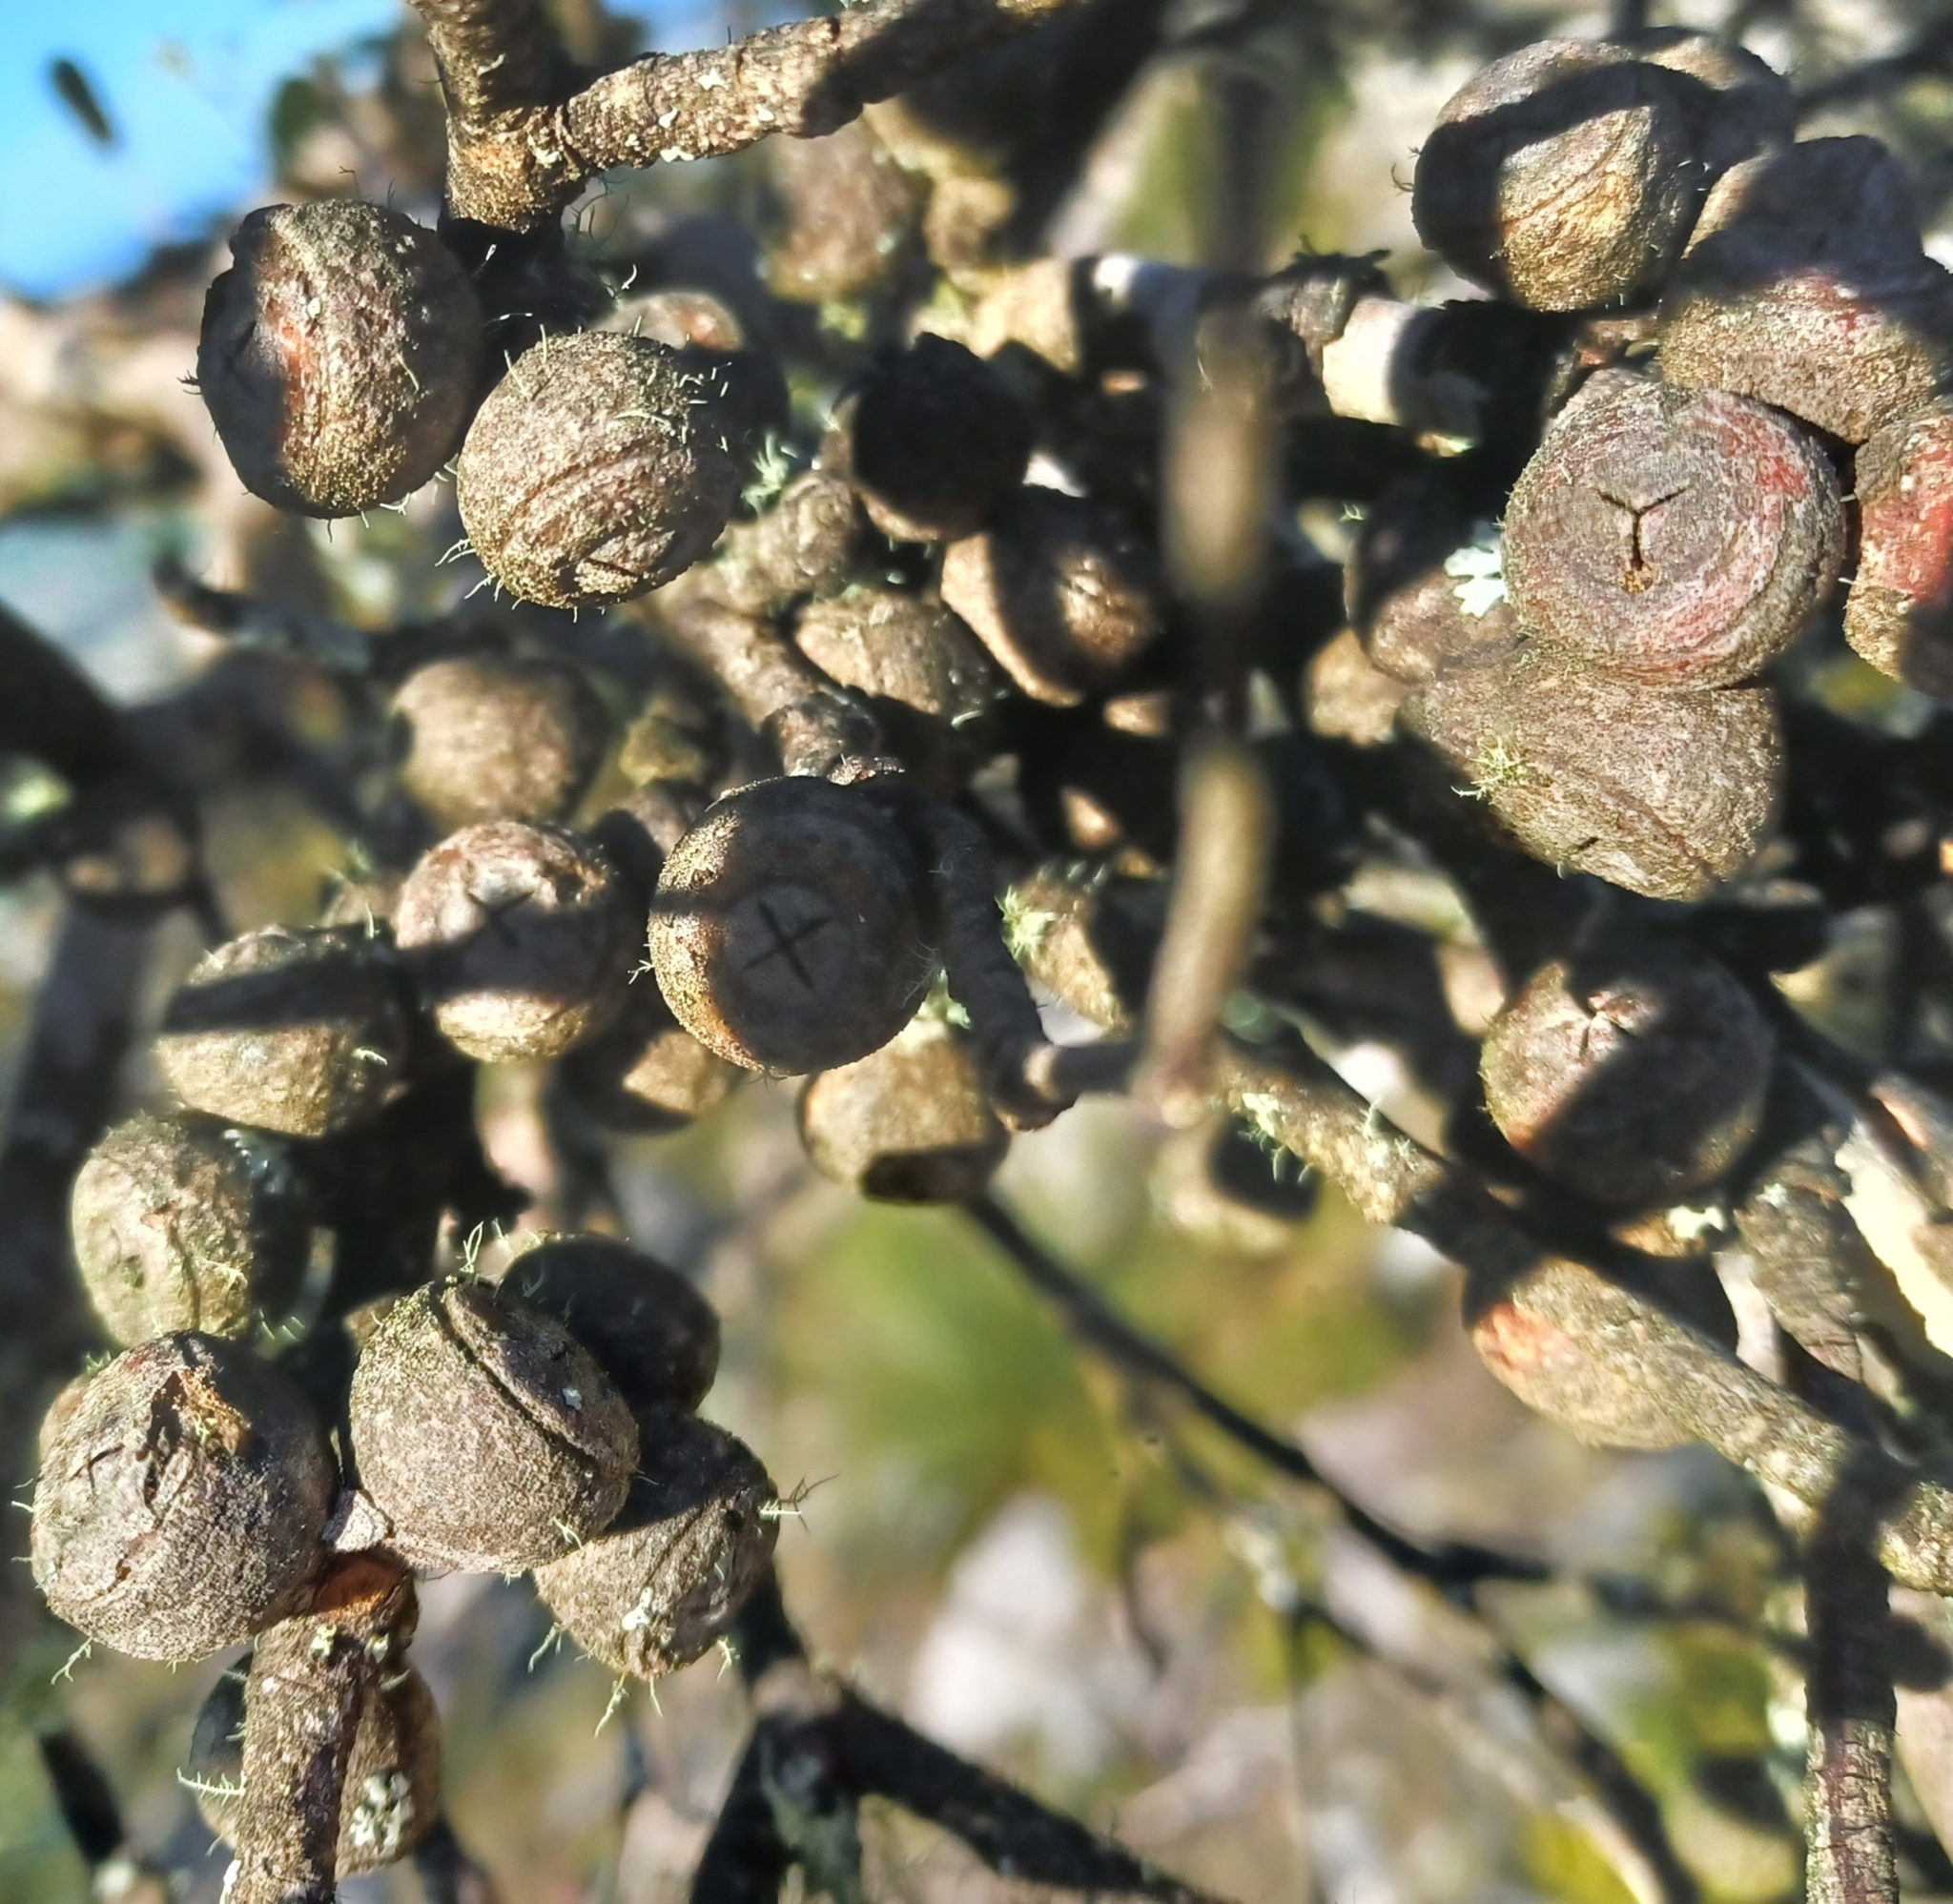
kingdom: Plantae
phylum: Tracheophyta
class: Magnoliopsida
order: Myrtales
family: Myrtaceae
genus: Eucalyptus
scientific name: Eucalyptus serraensis
